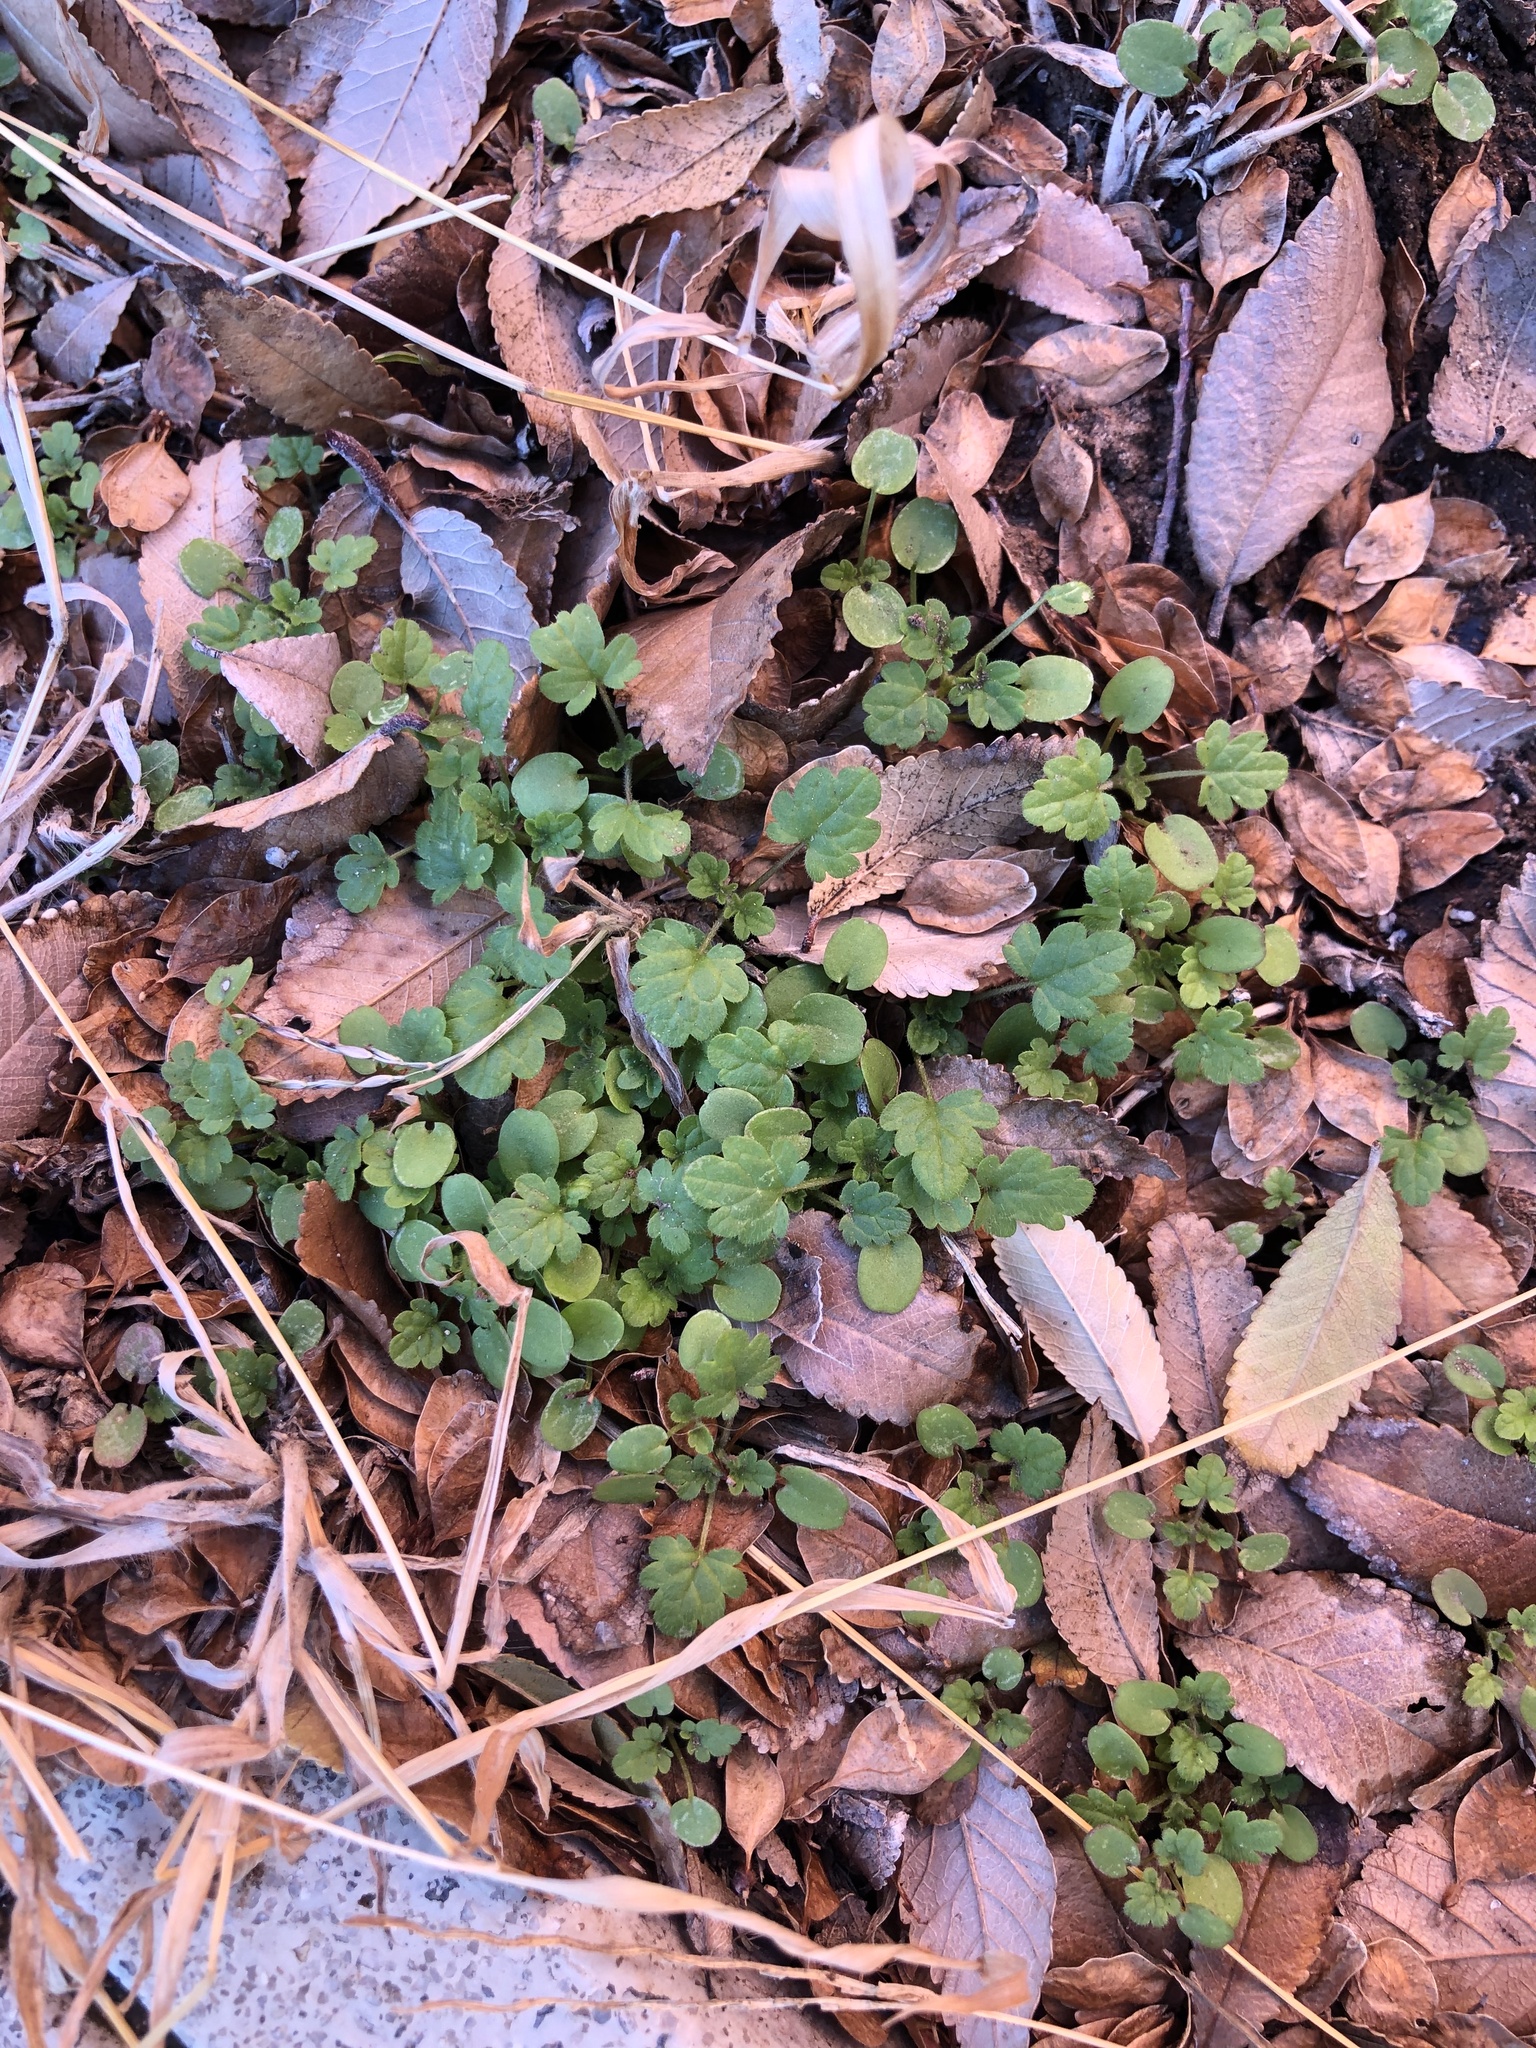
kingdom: Plantae
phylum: Tracheophyta
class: Magnoliopsida
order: Lamiales
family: Lamiaceae
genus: Lamium
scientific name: Lamium amplexicaule
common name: Henbit dead-nettle
